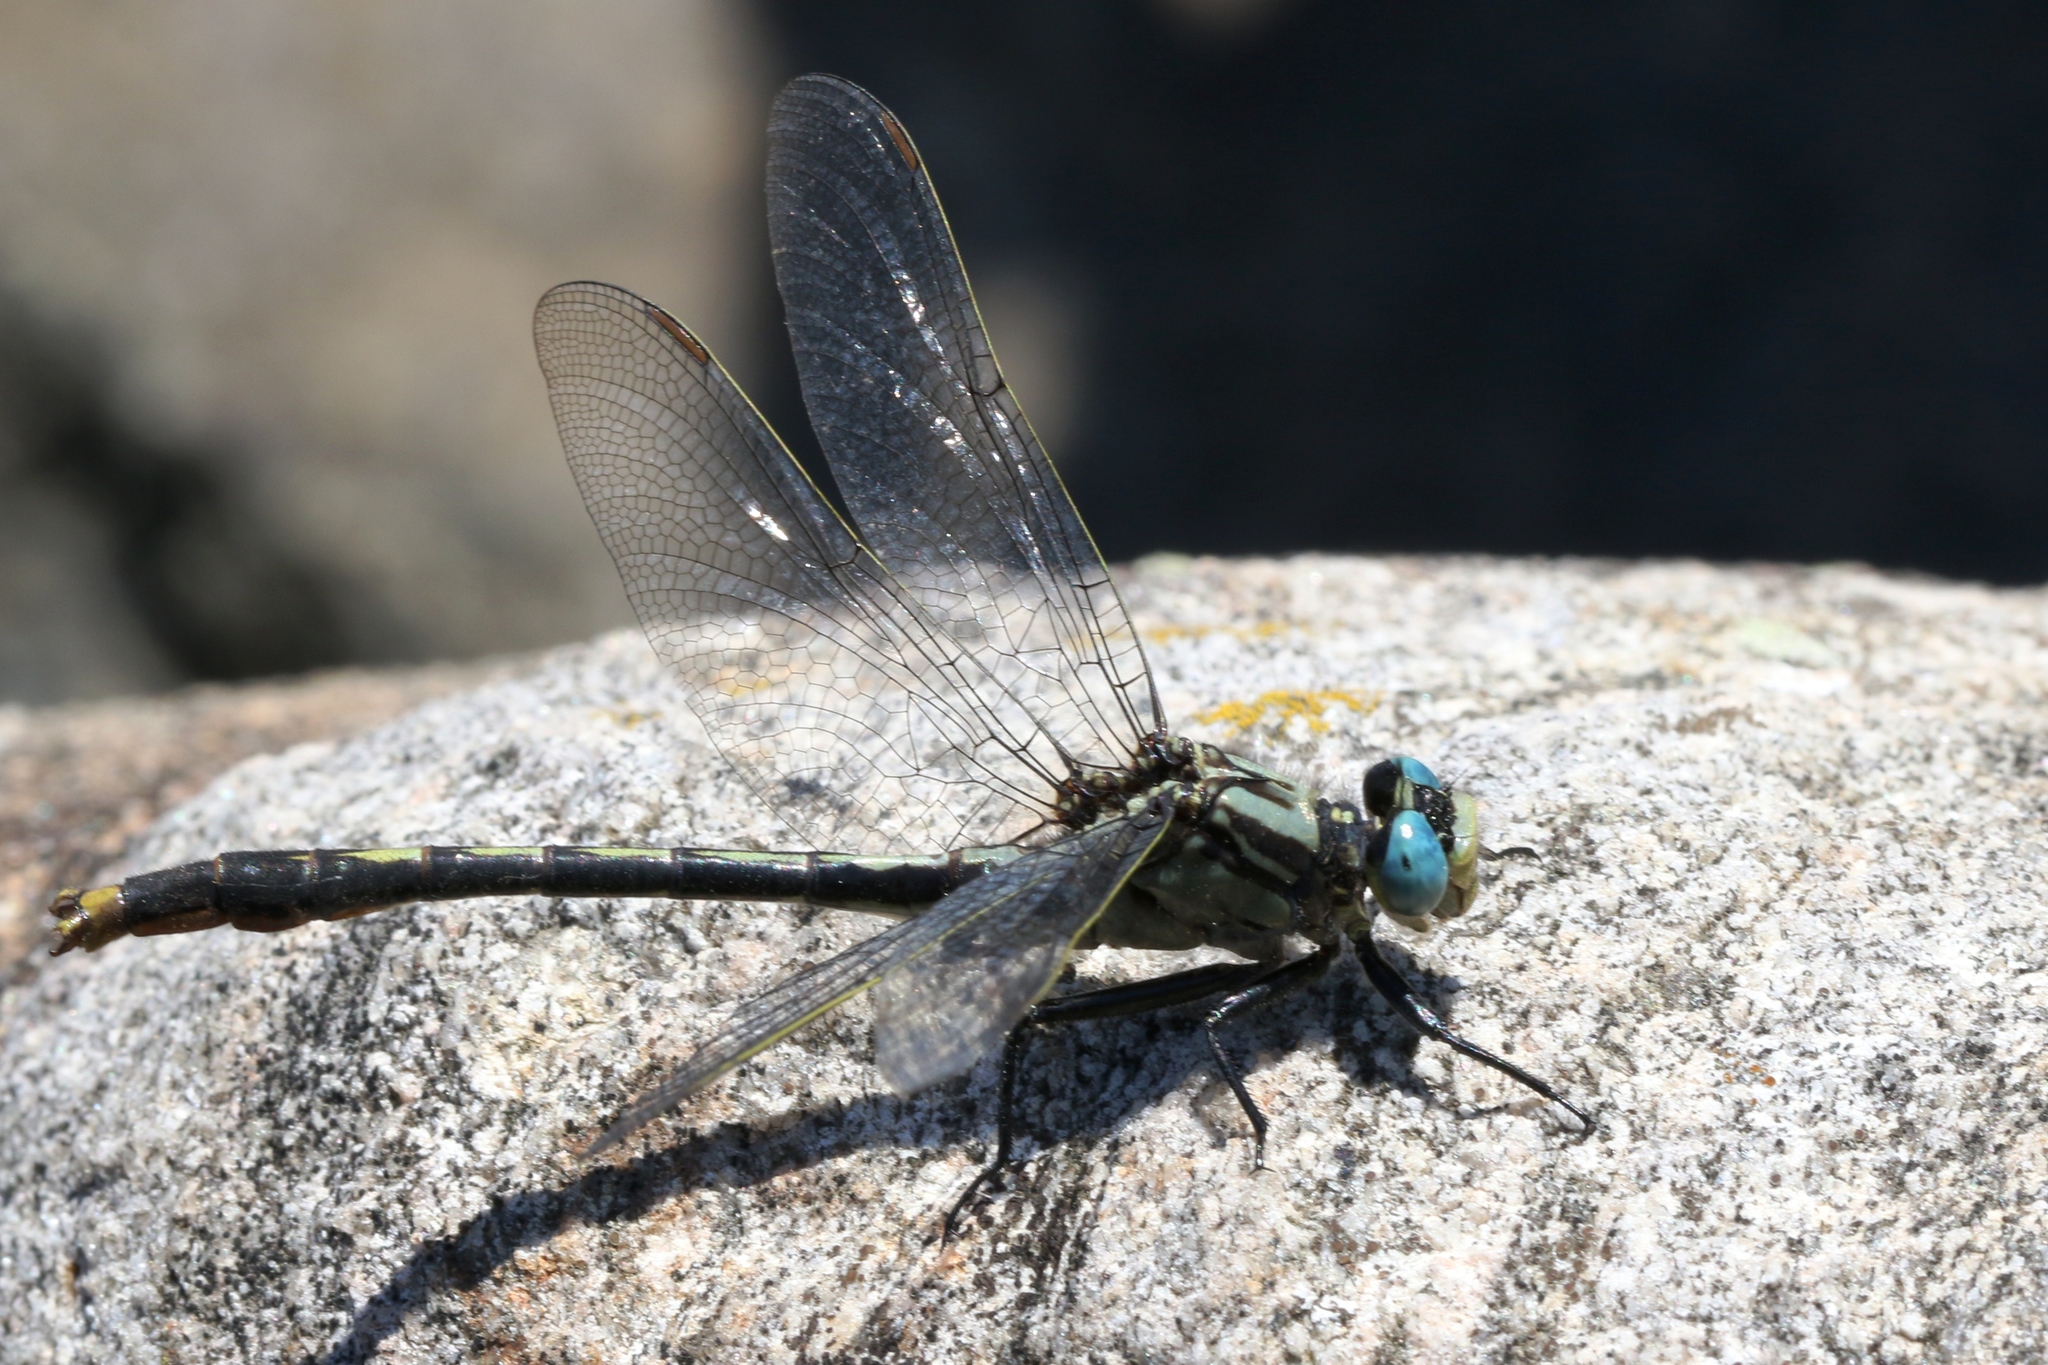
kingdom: Animalia
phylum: Arthropoda
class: Insecta
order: Odonata
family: Gomphidae
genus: Arigomphus
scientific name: Arigomphus furcifer
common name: Lilypad clubtail
